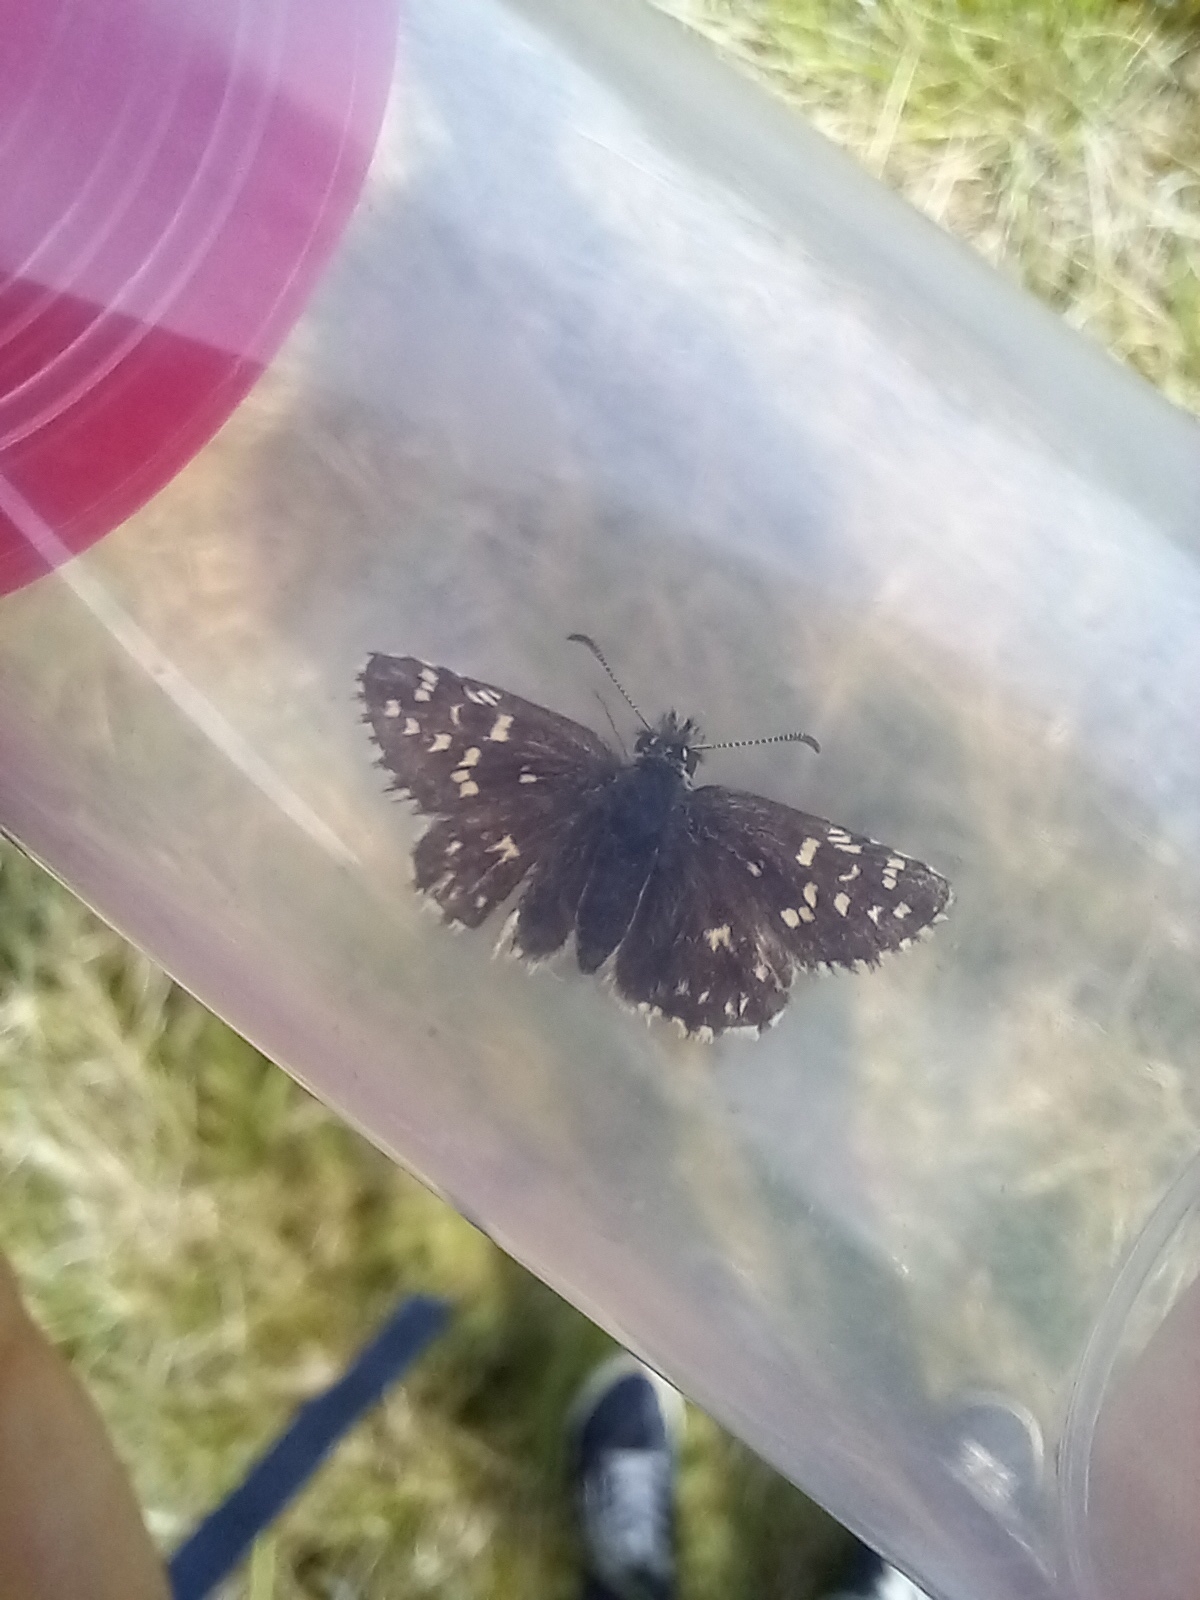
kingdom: Animalia
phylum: Arthropoda
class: Insecta
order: Lepidoptera
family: Hesperiidae
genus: Pyrgus
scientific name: Pyrgus malvae
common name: Grizzled skipper
